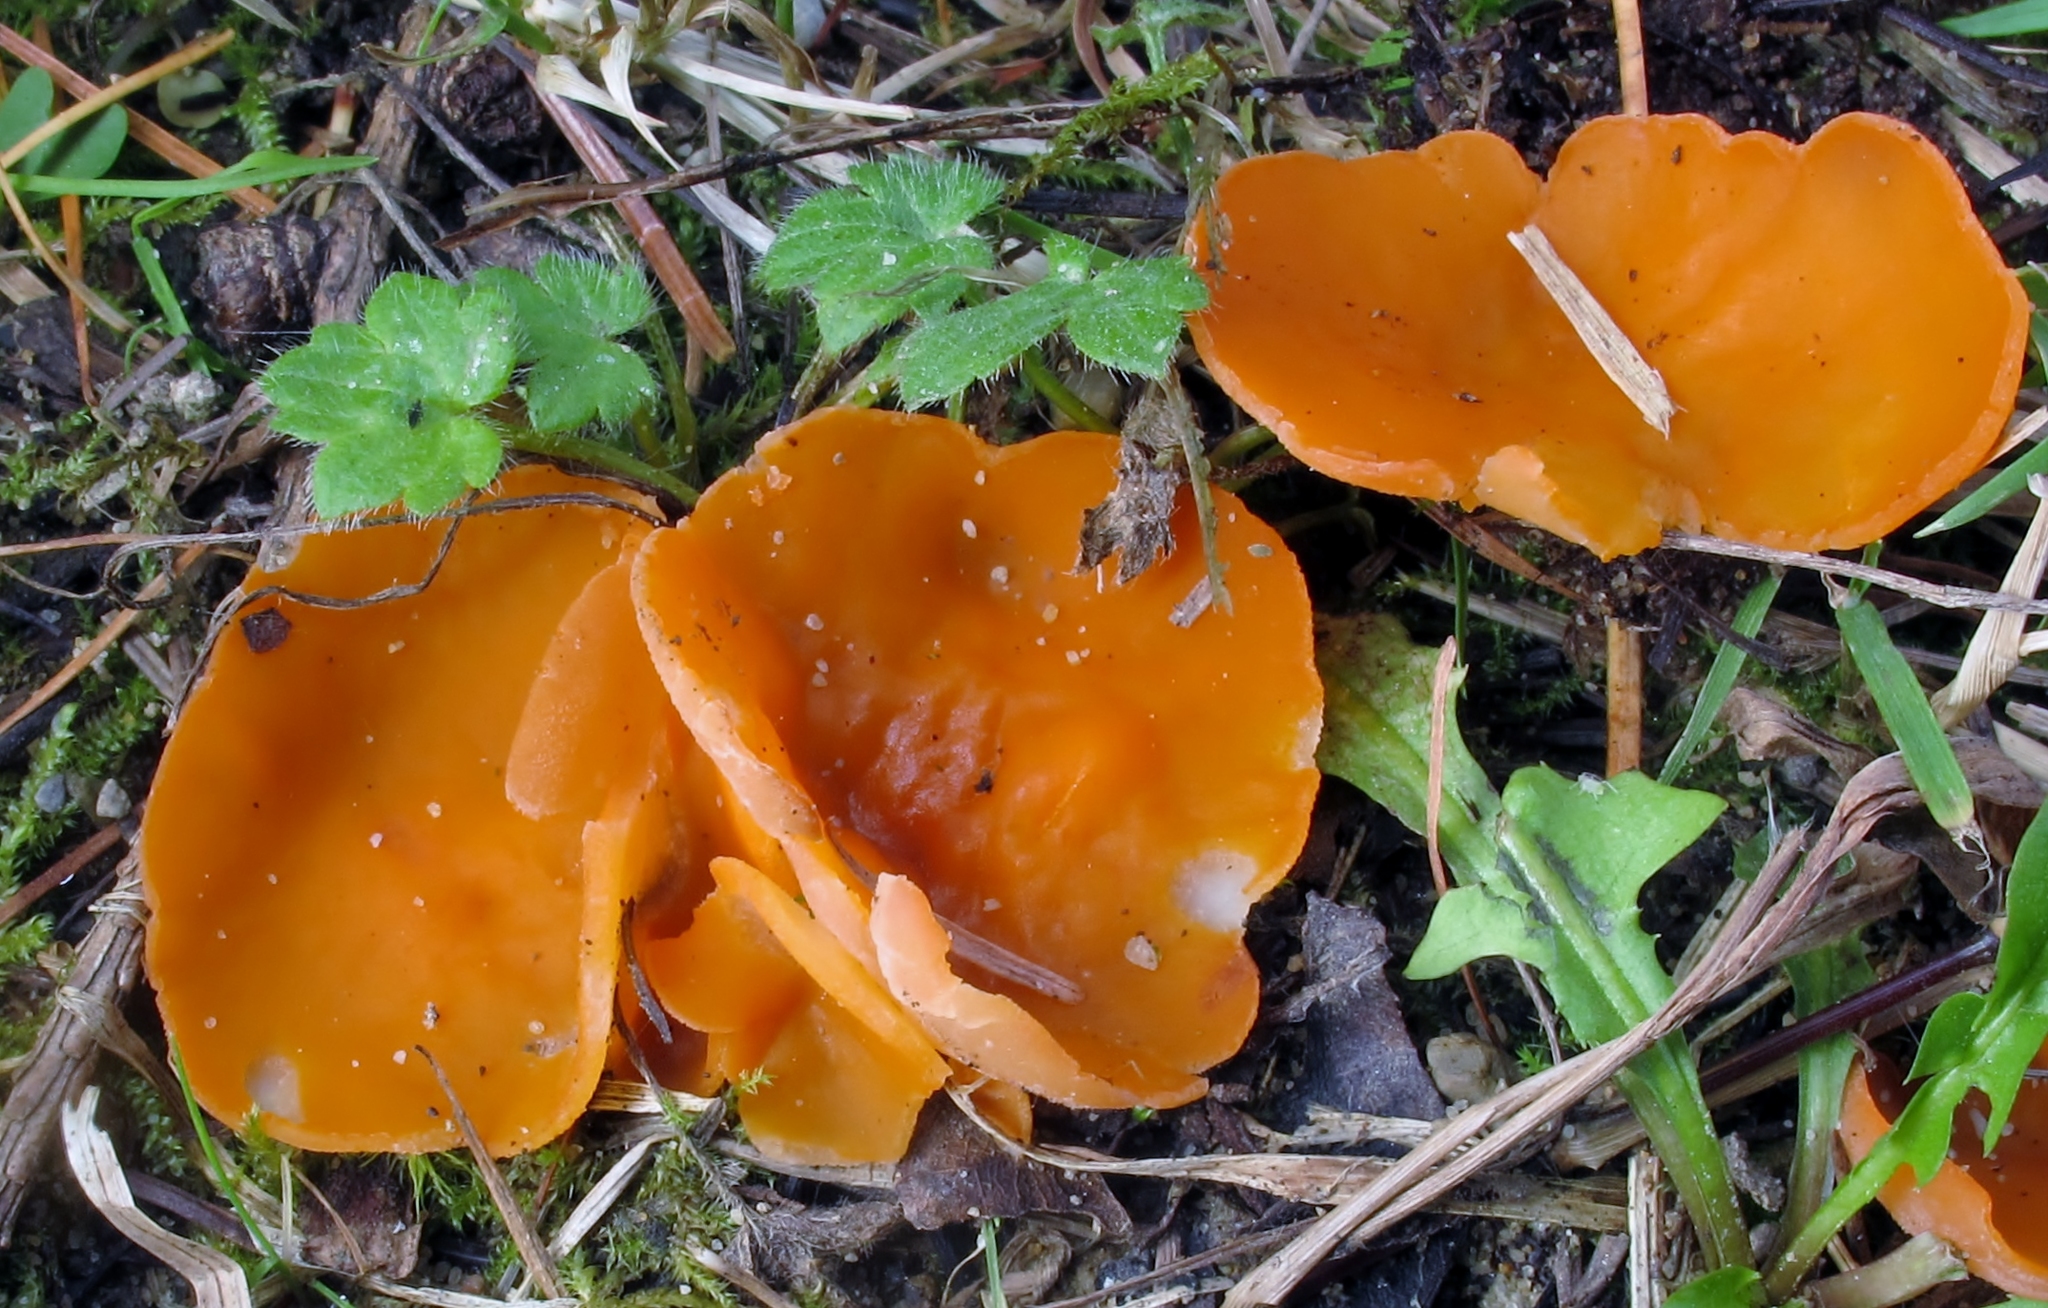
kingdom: Fungi
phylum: Ascomycota
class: Pezizomycetes
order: Pezizales
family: Pyronemataceae
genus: Aleuria
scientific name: Aleuria aurantia
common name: Orange peel fungus
